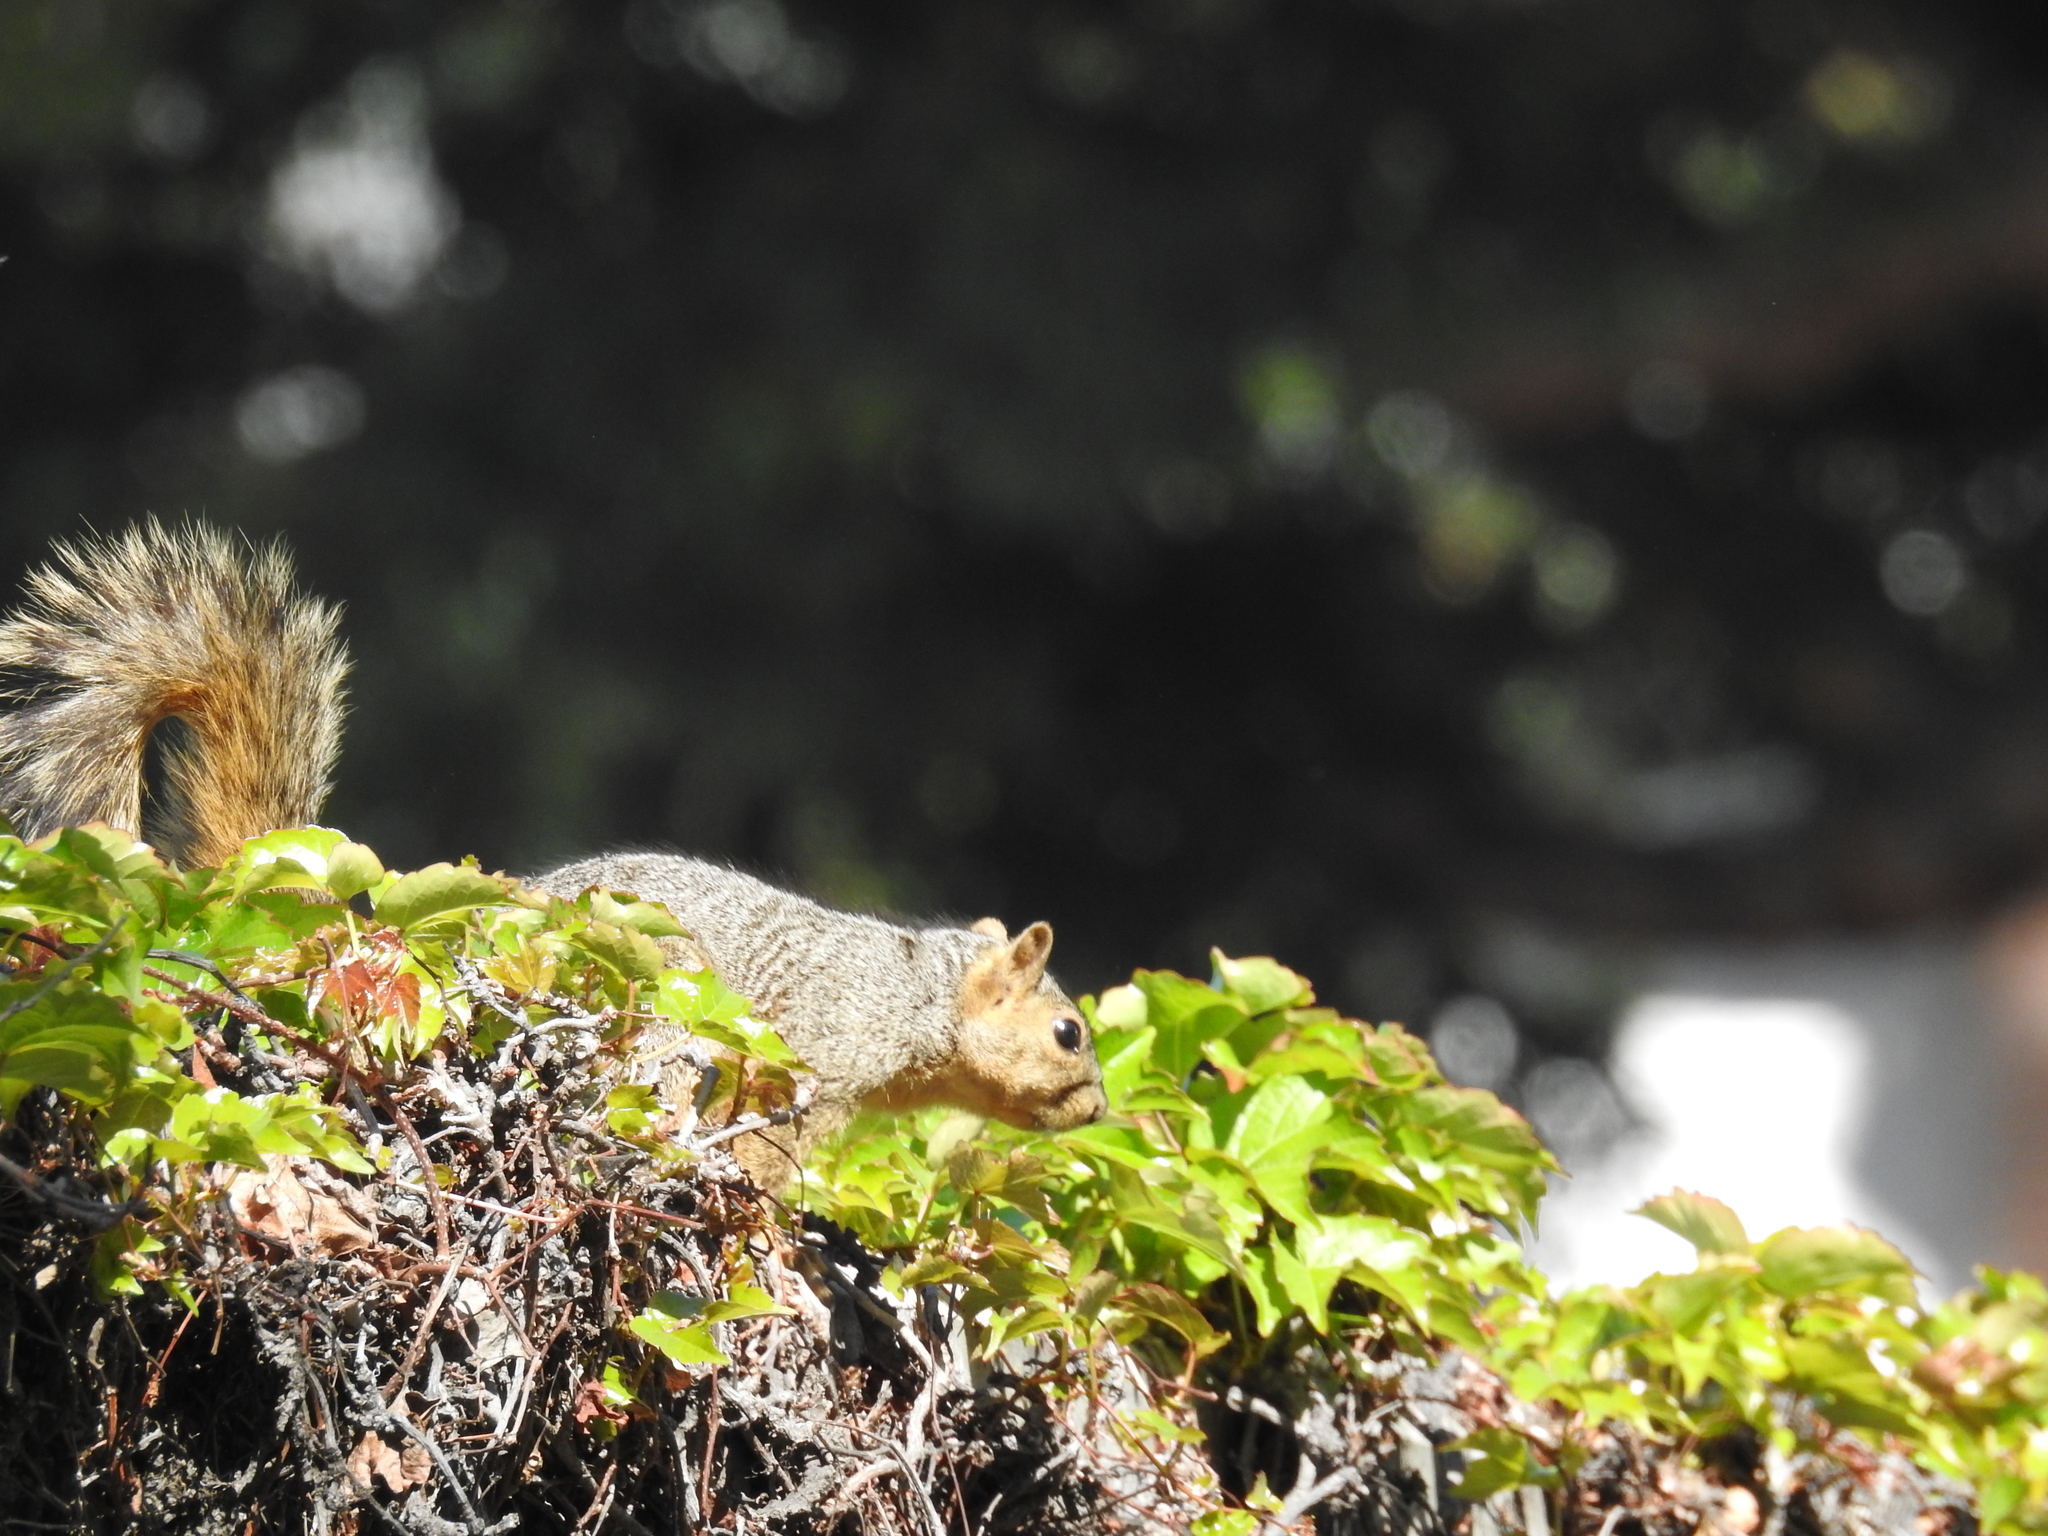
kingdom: Animalia
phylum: Chordata
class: Mammalia
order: Rodentia
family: Sciuridae
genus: Sciurus
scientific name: Sciurus niger
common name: Fox squirrel
